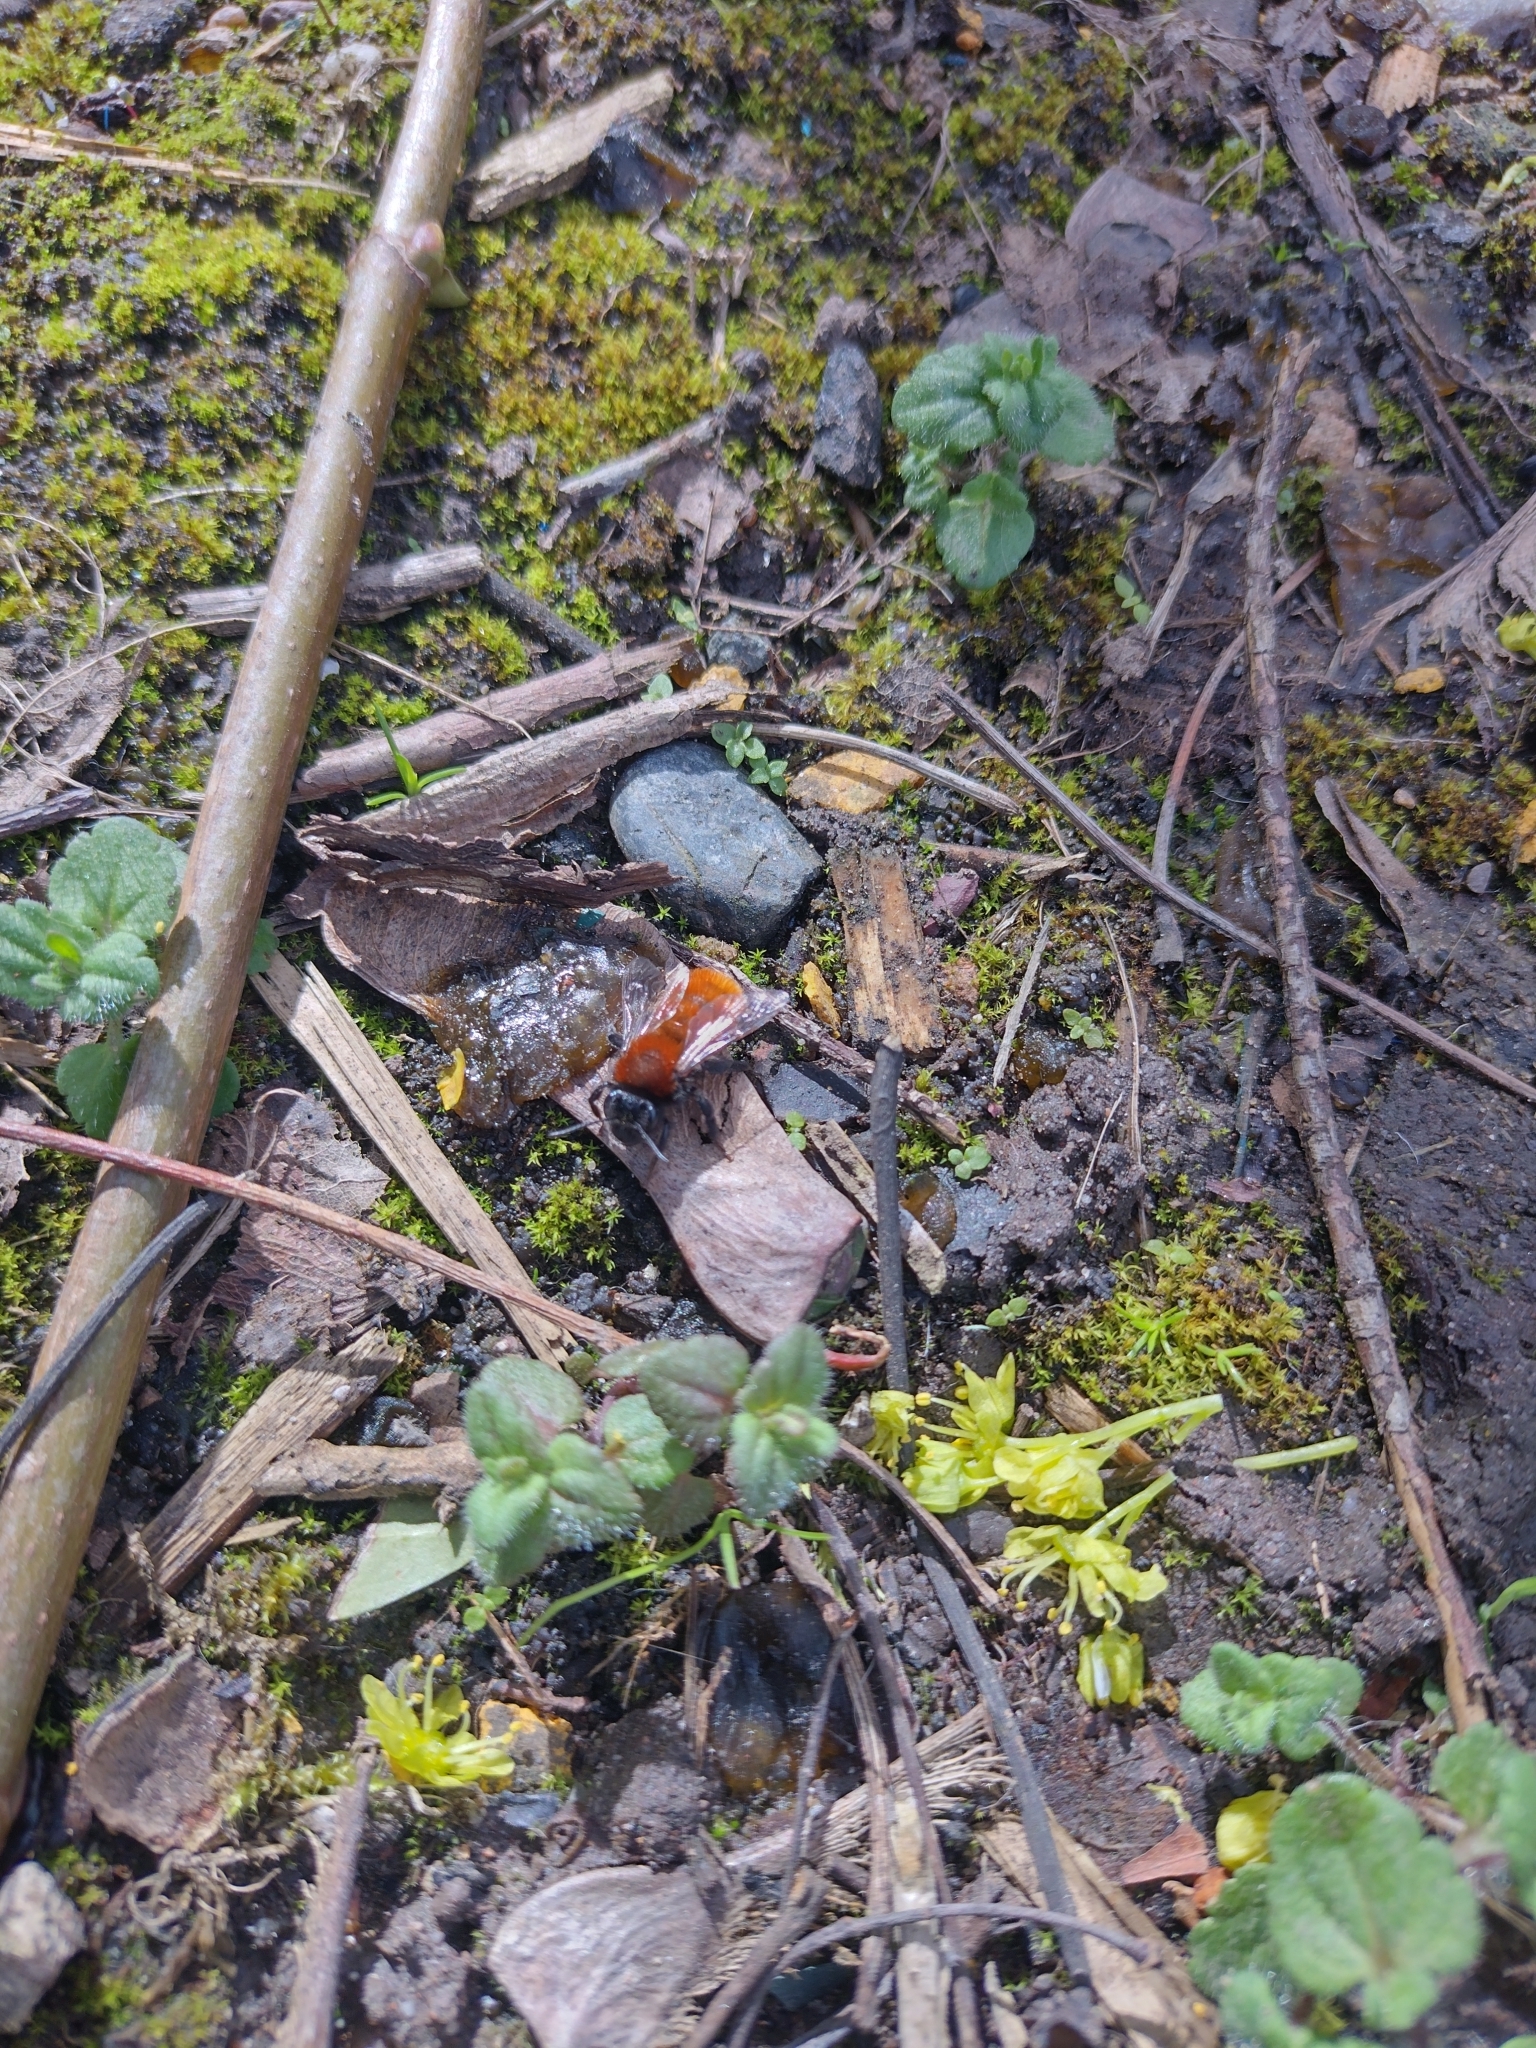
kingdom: Animalia
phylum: Arthropoda
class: Insecta
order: Hymenoptera
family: Andrenidae
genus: Andrena
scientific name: Andrena fulva
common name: Tawny mining bee
